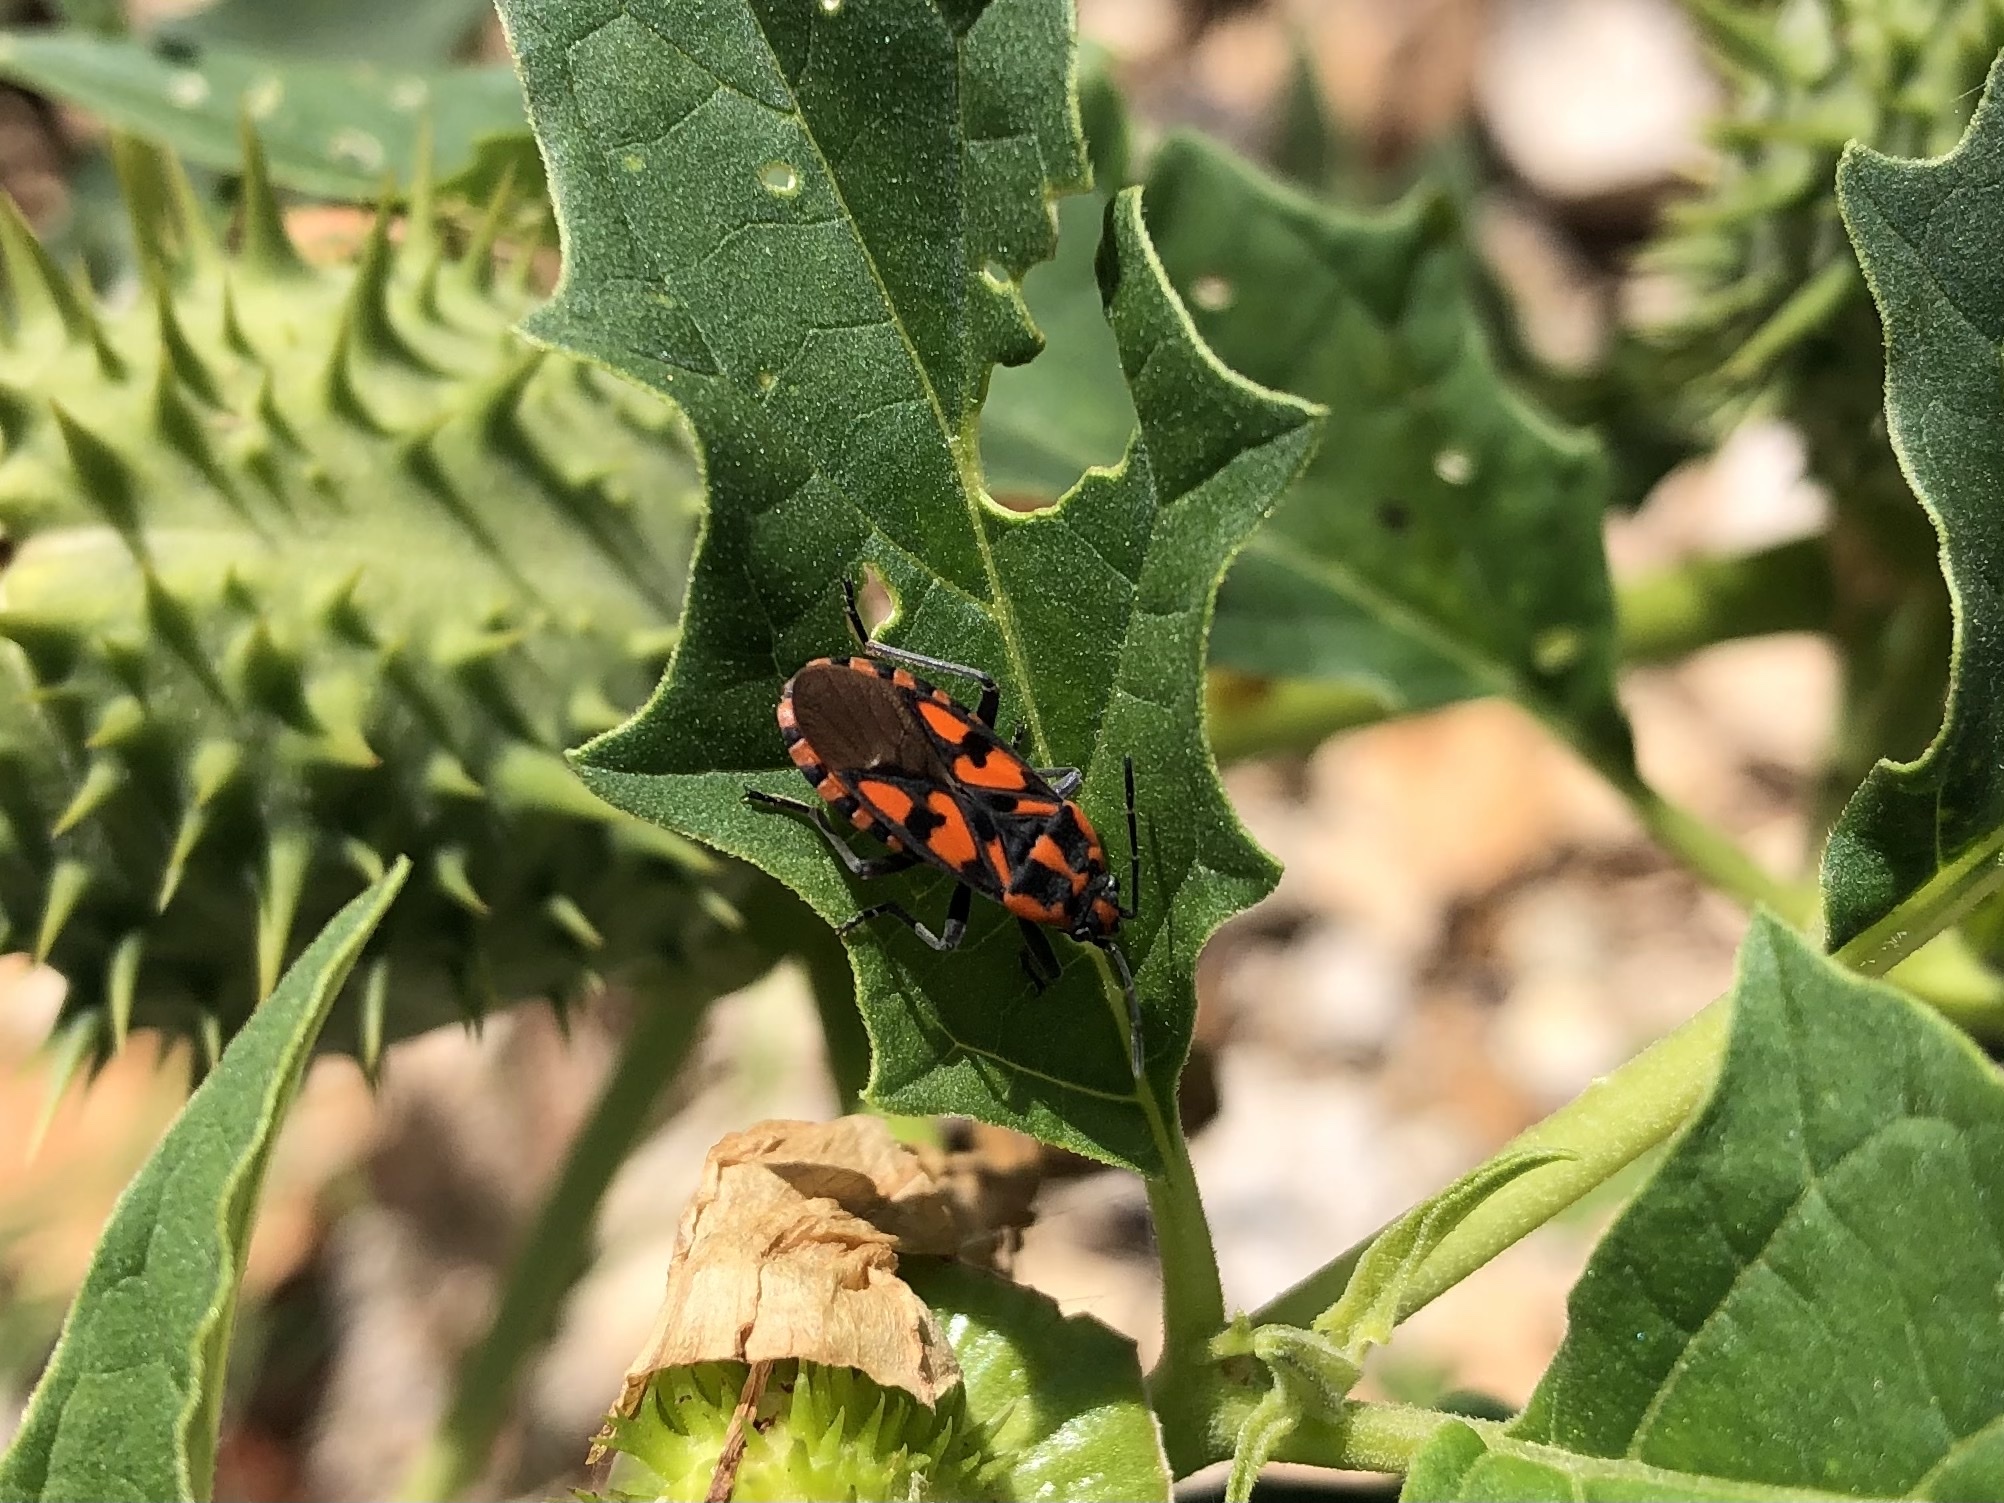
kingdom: Animalia
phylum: Arthropoda
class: Insecta
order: Hemiptera
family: Lygaeidae
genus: Spilostethus
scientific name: Spilostethus saxatilis
